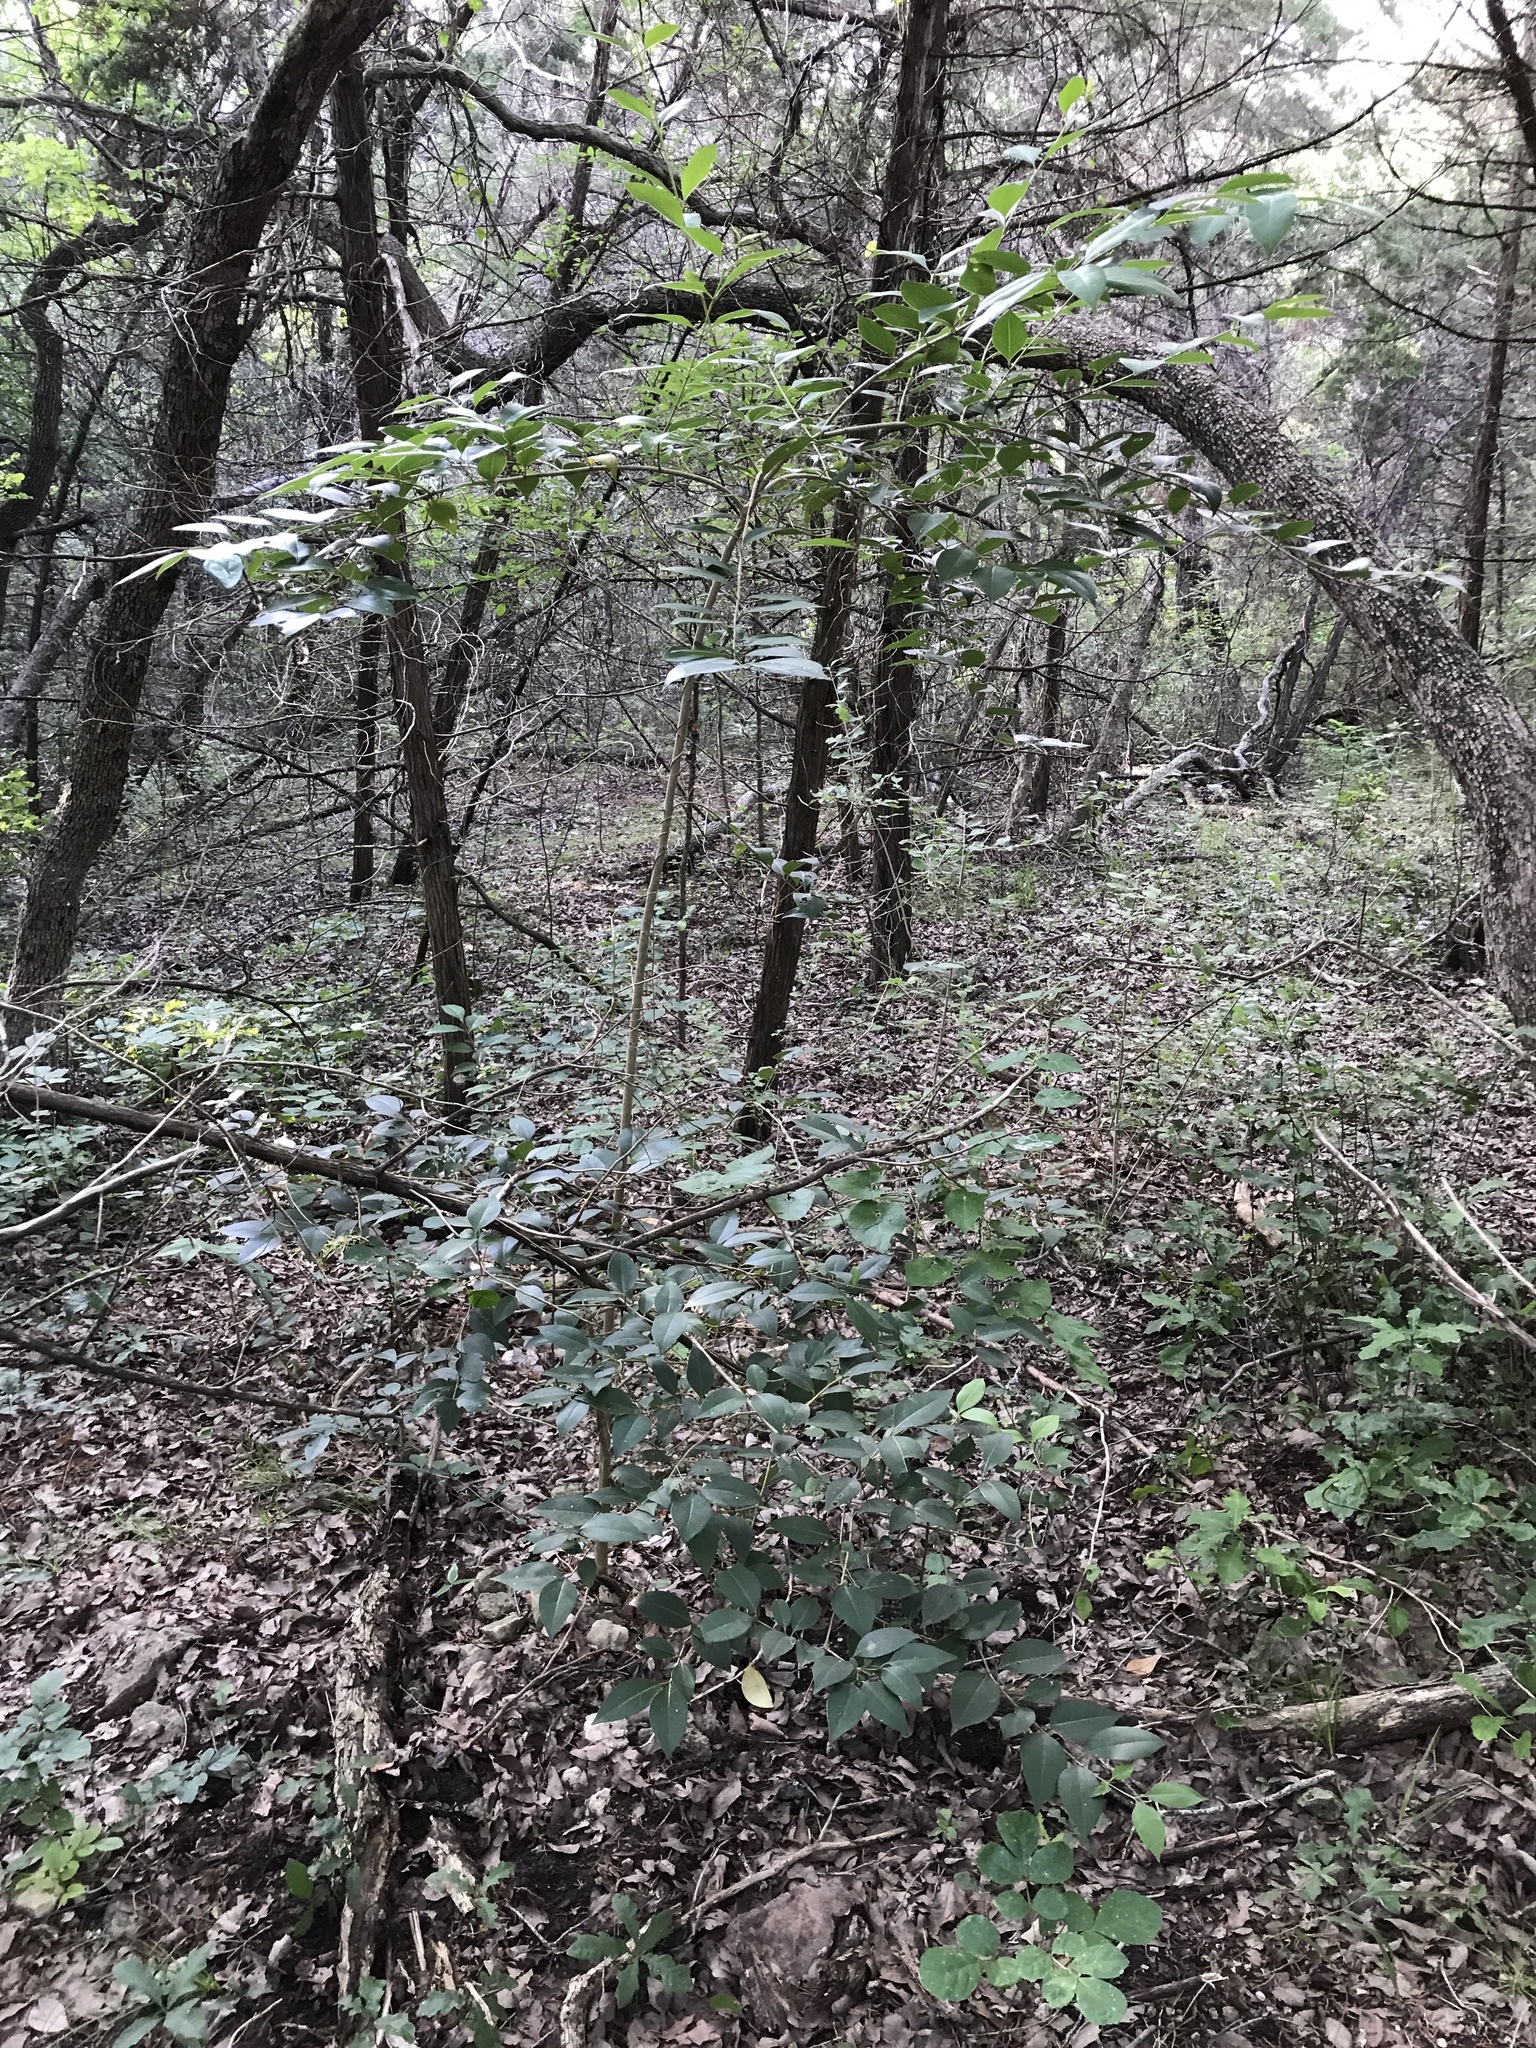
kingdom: Plantae
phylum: Tracheophyta
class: Magnoliopsida
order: Lamiales
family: Oleaceae
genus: Ligustrum
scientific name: Ligustrum lucidum
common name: Glossy privet
